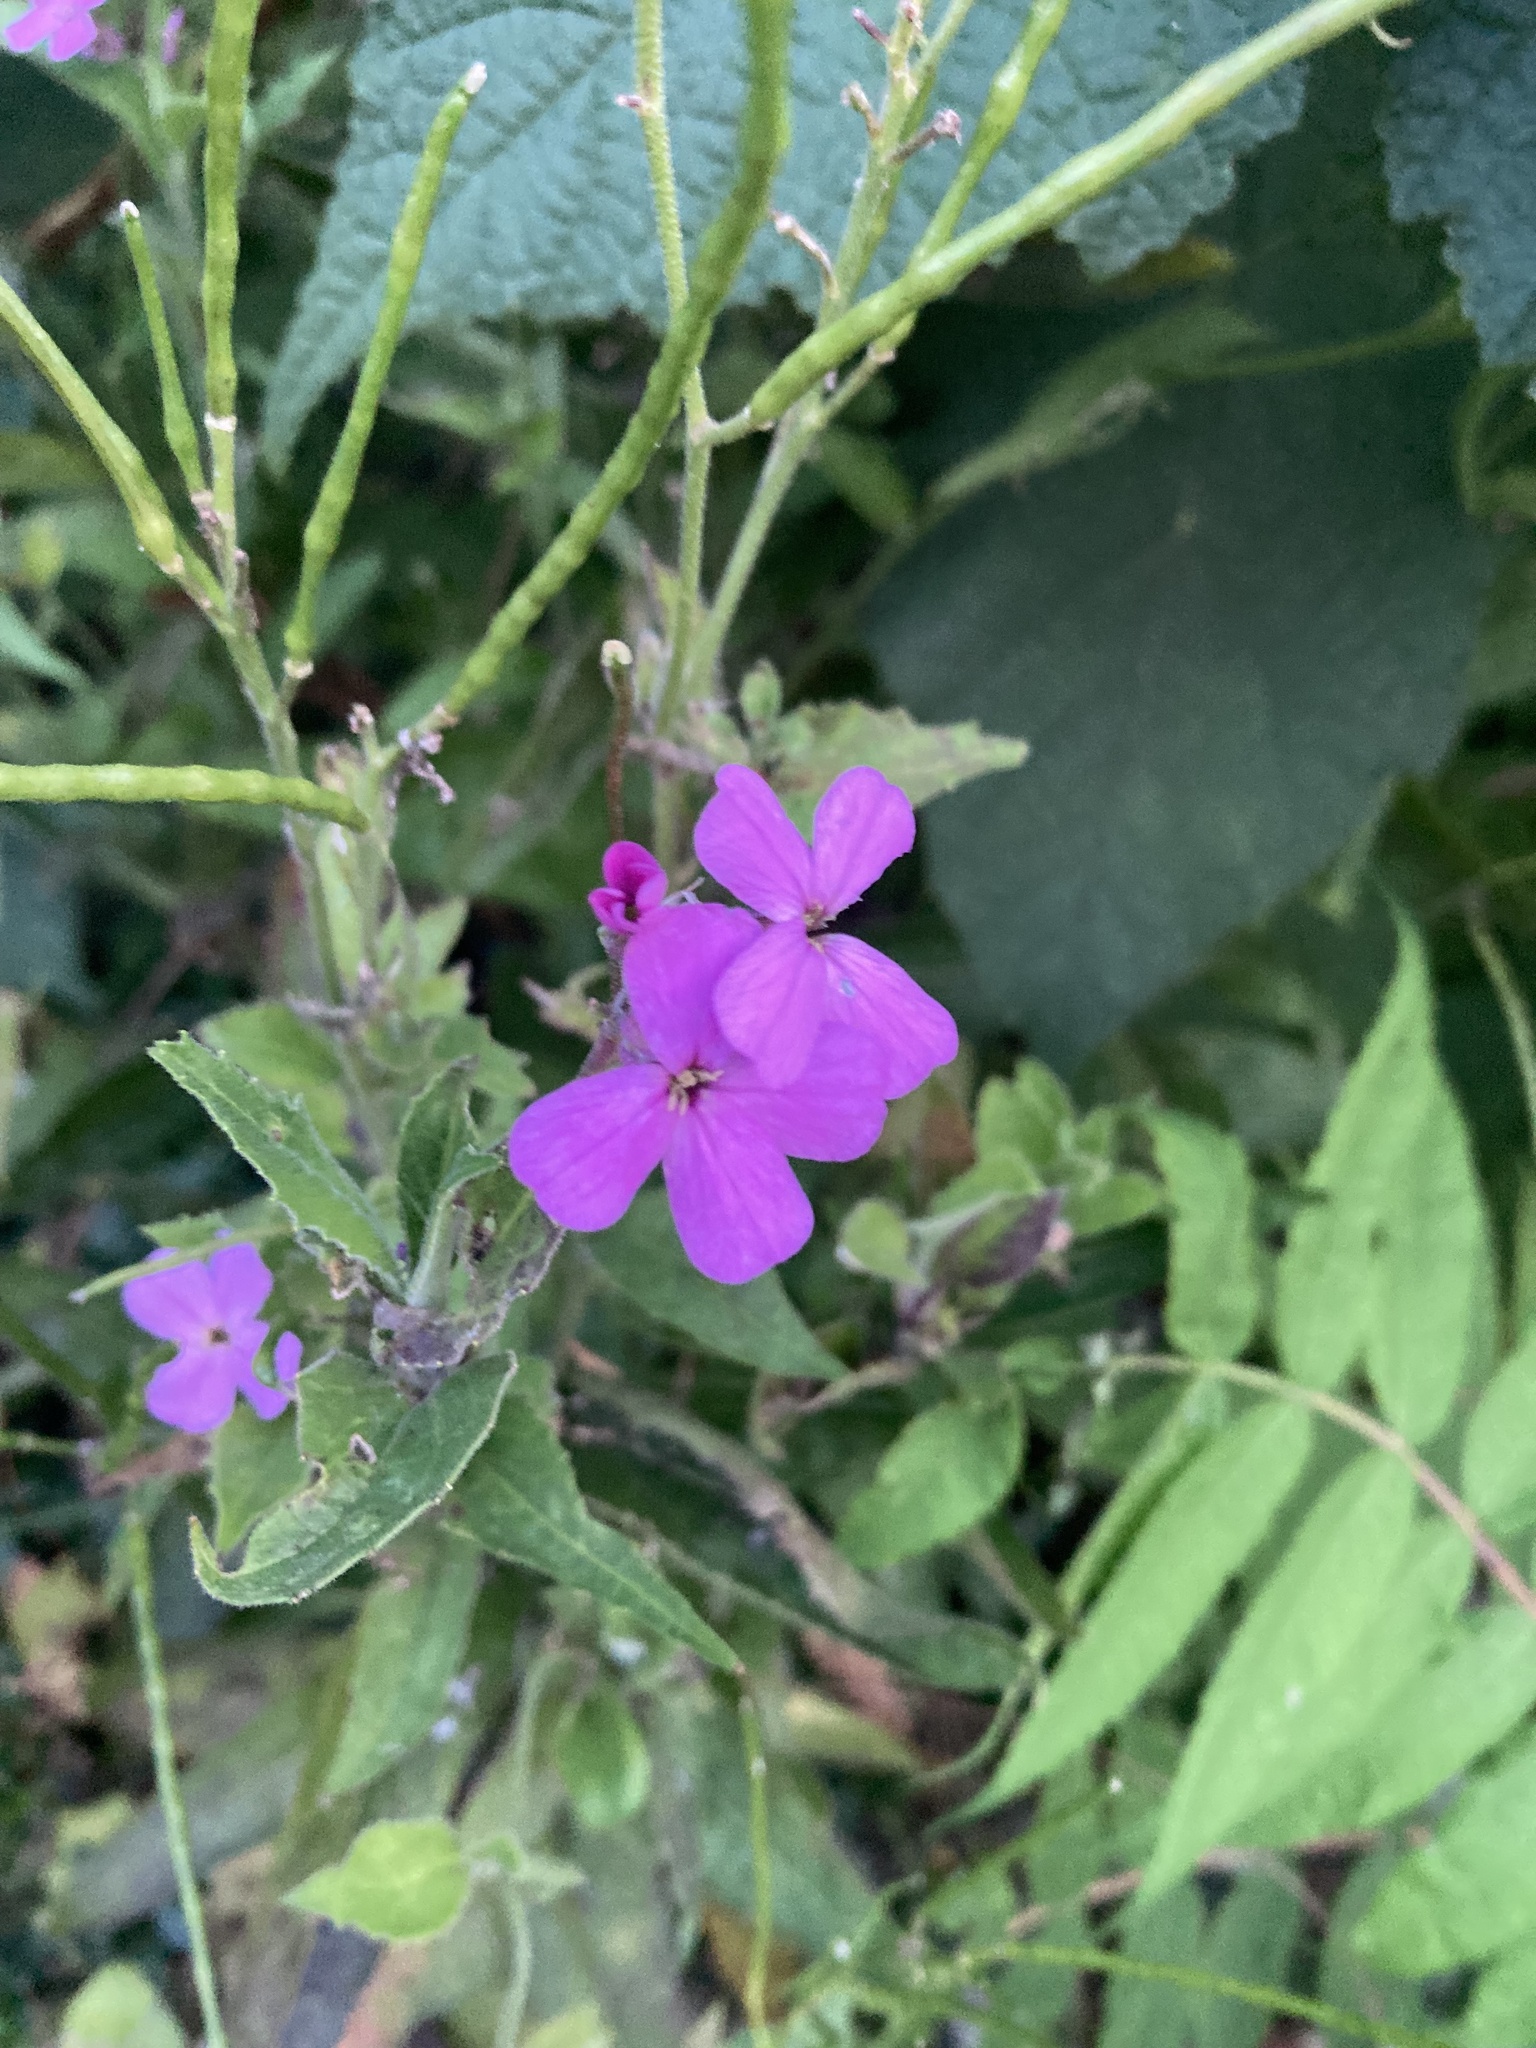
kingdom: Plantae
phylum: Tracheophyta
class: Magnoliopsida
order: Brassicales
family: Brassicaceae
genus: Hesperis
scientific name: Hesperis matronalis
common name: Dame's-violet
